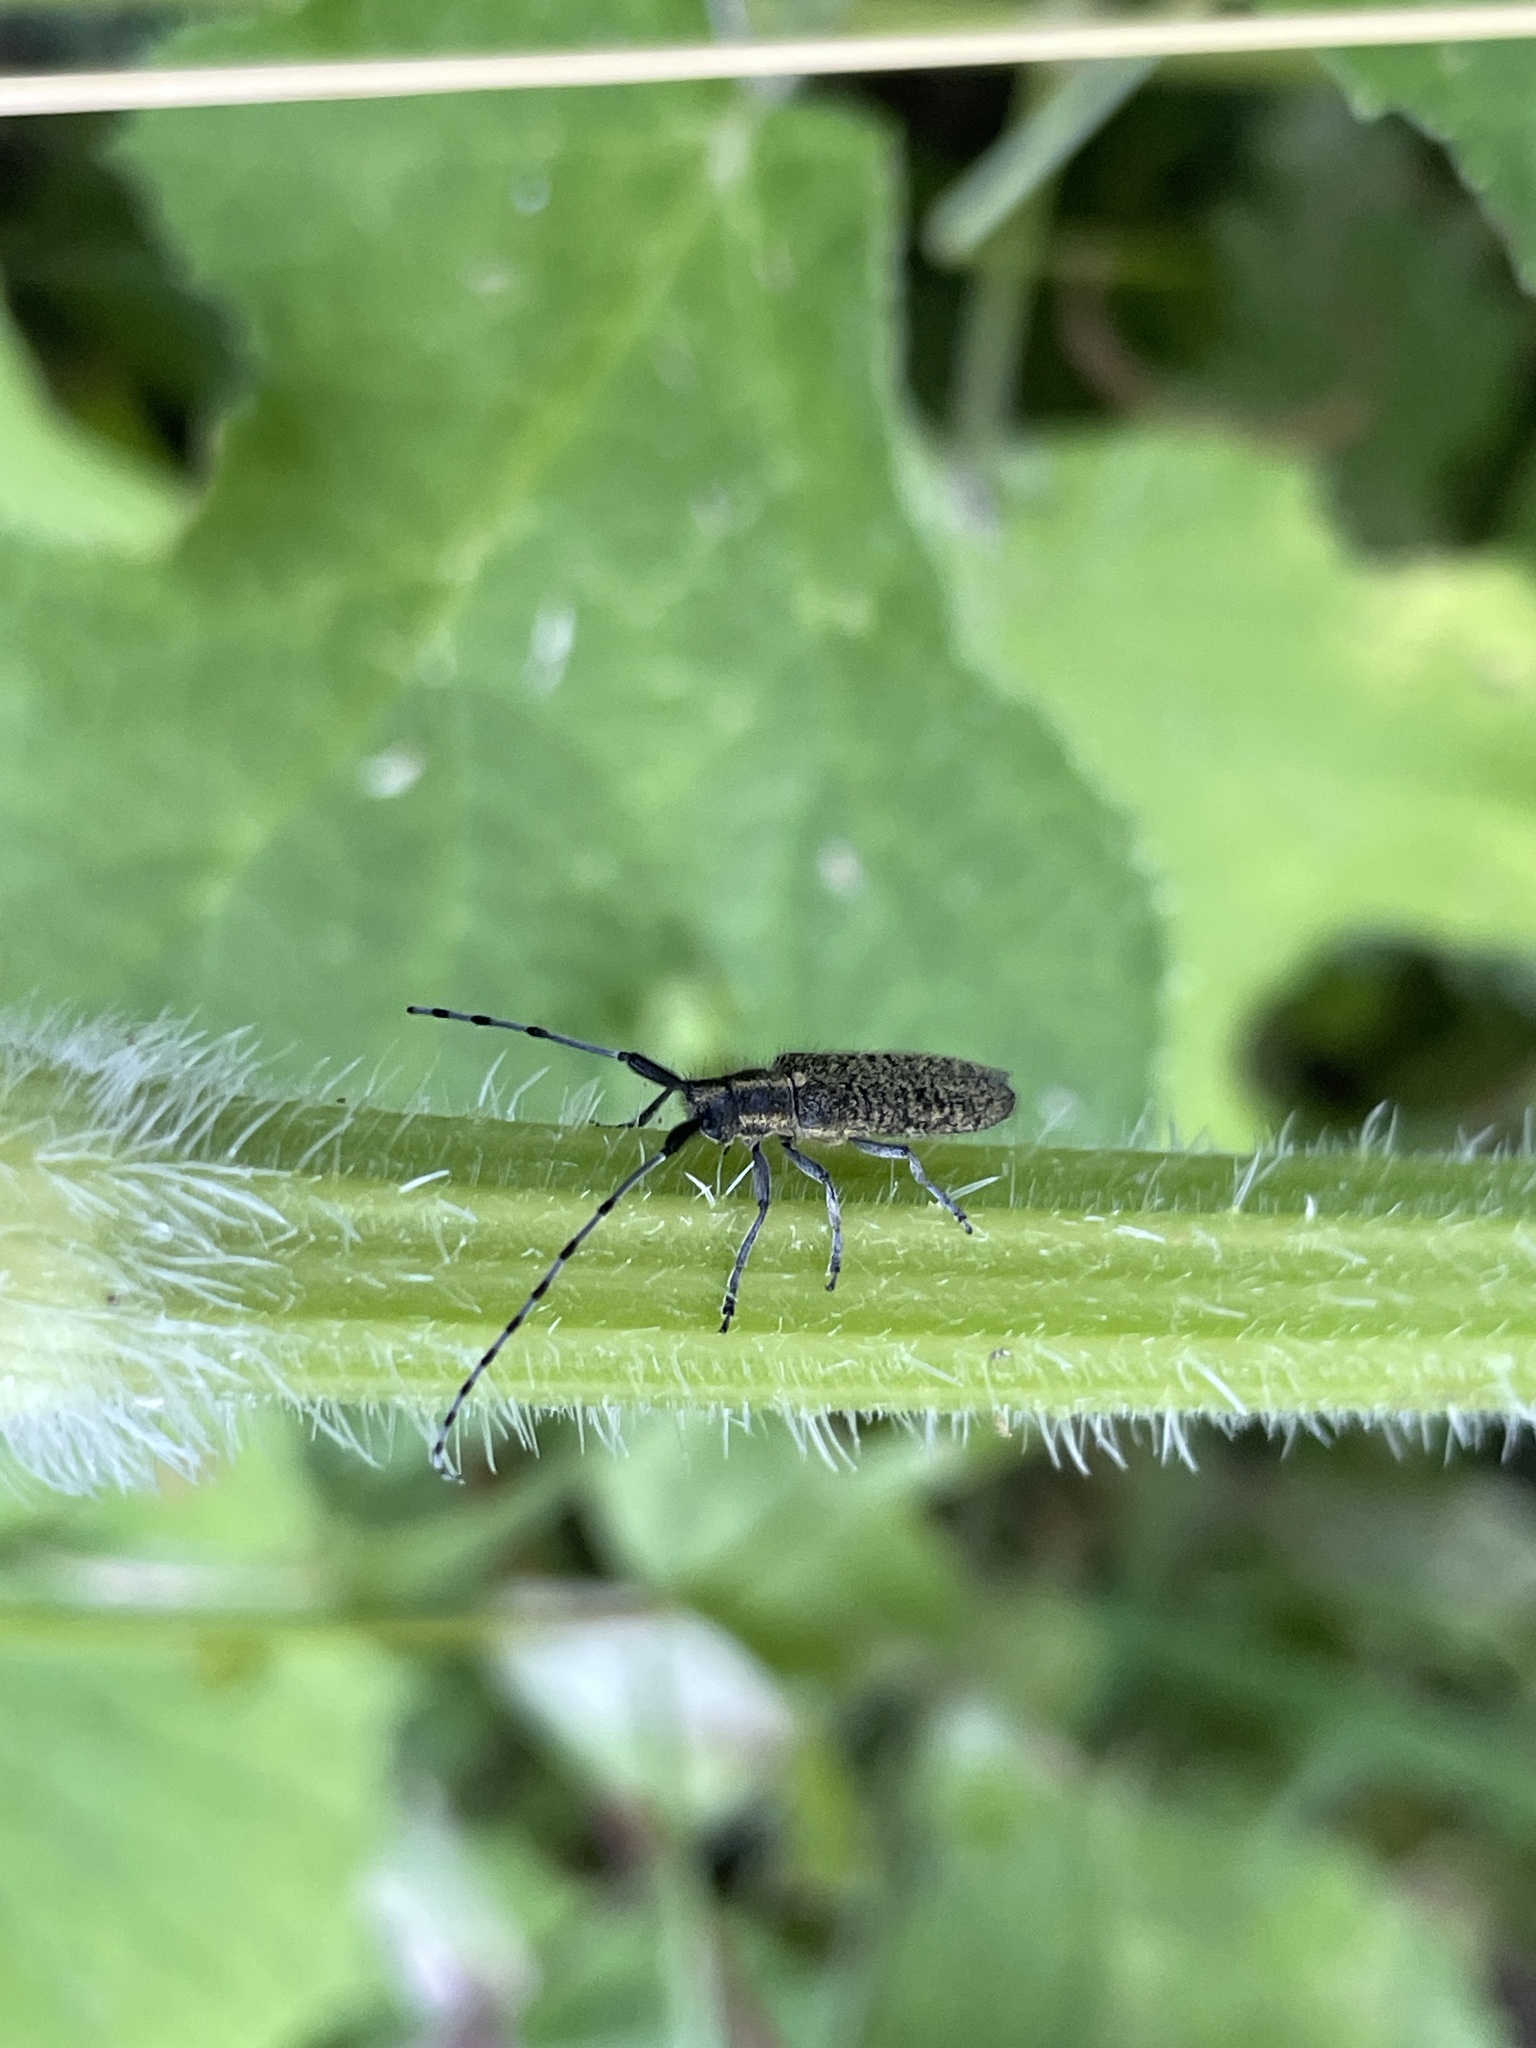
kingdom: Animalia
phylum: Arthropoda
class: Insecta
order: Coleoptera
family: Cerambycidae
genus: Agapanthia
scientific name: Agapanthia villosoviridescens
